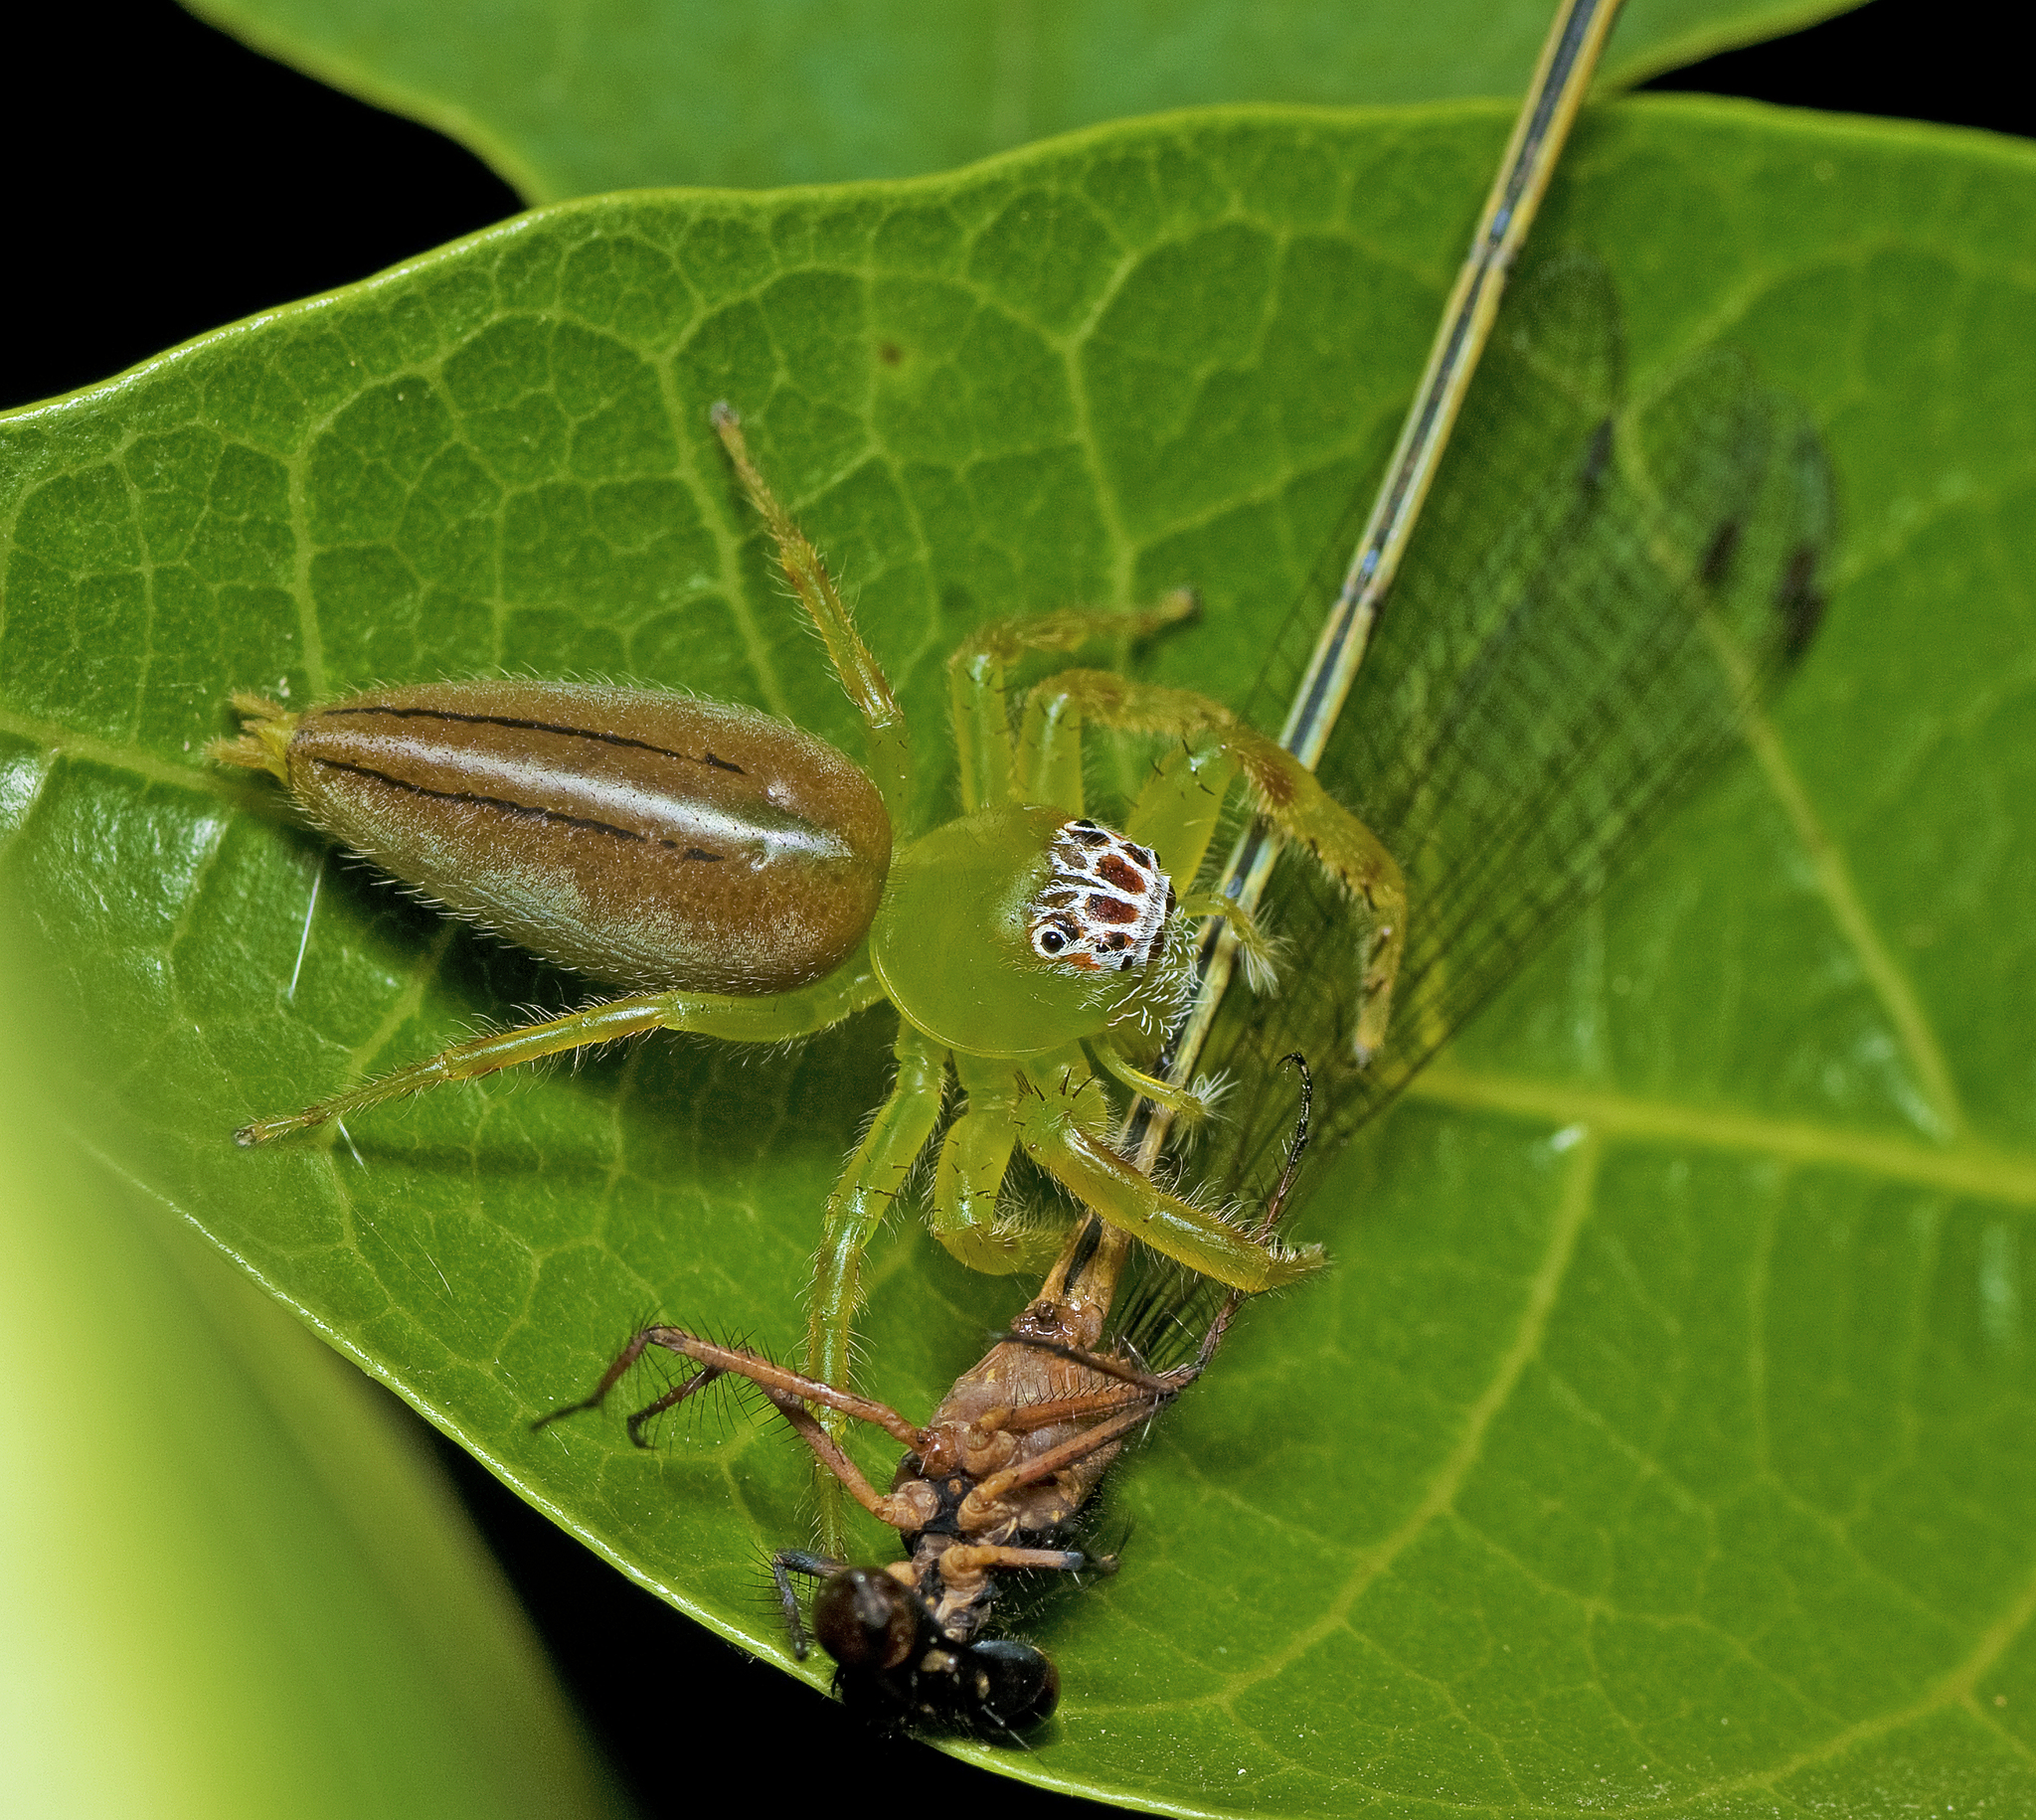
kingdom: Animalia
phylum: Arthropoda
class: Arachnida
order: Araneae
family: Salticidae
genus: Mopsus
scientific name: Mopsus mormon
